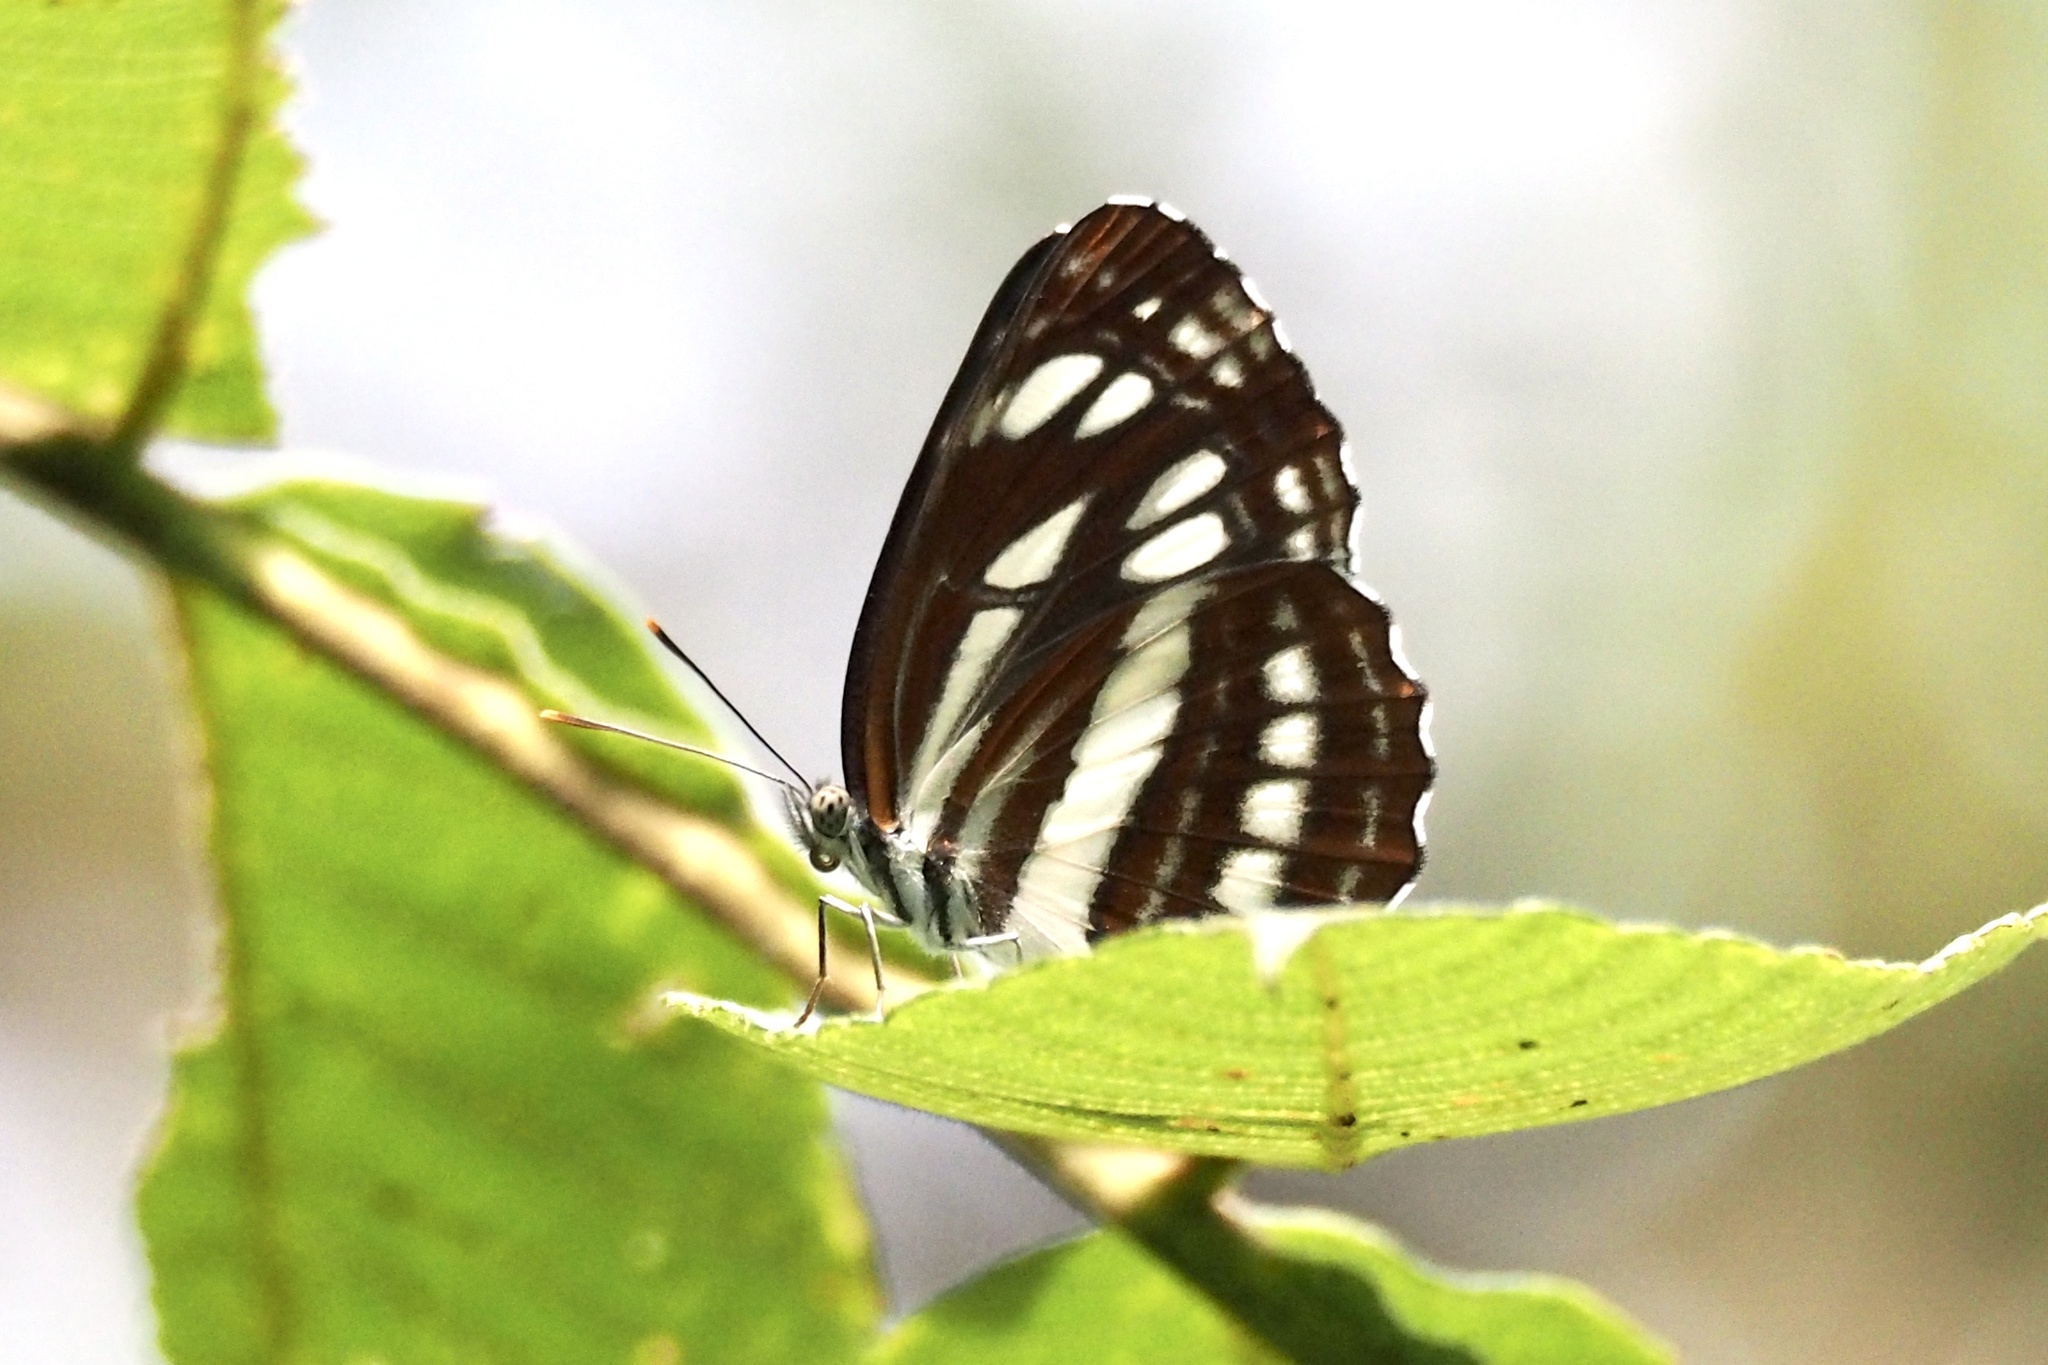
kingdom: Animalia
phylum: Arthropoda
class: Insecta
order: Lepidoptera
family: Nymphalidae
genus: Neptis
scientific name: Neptis sappho
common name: Common glider
